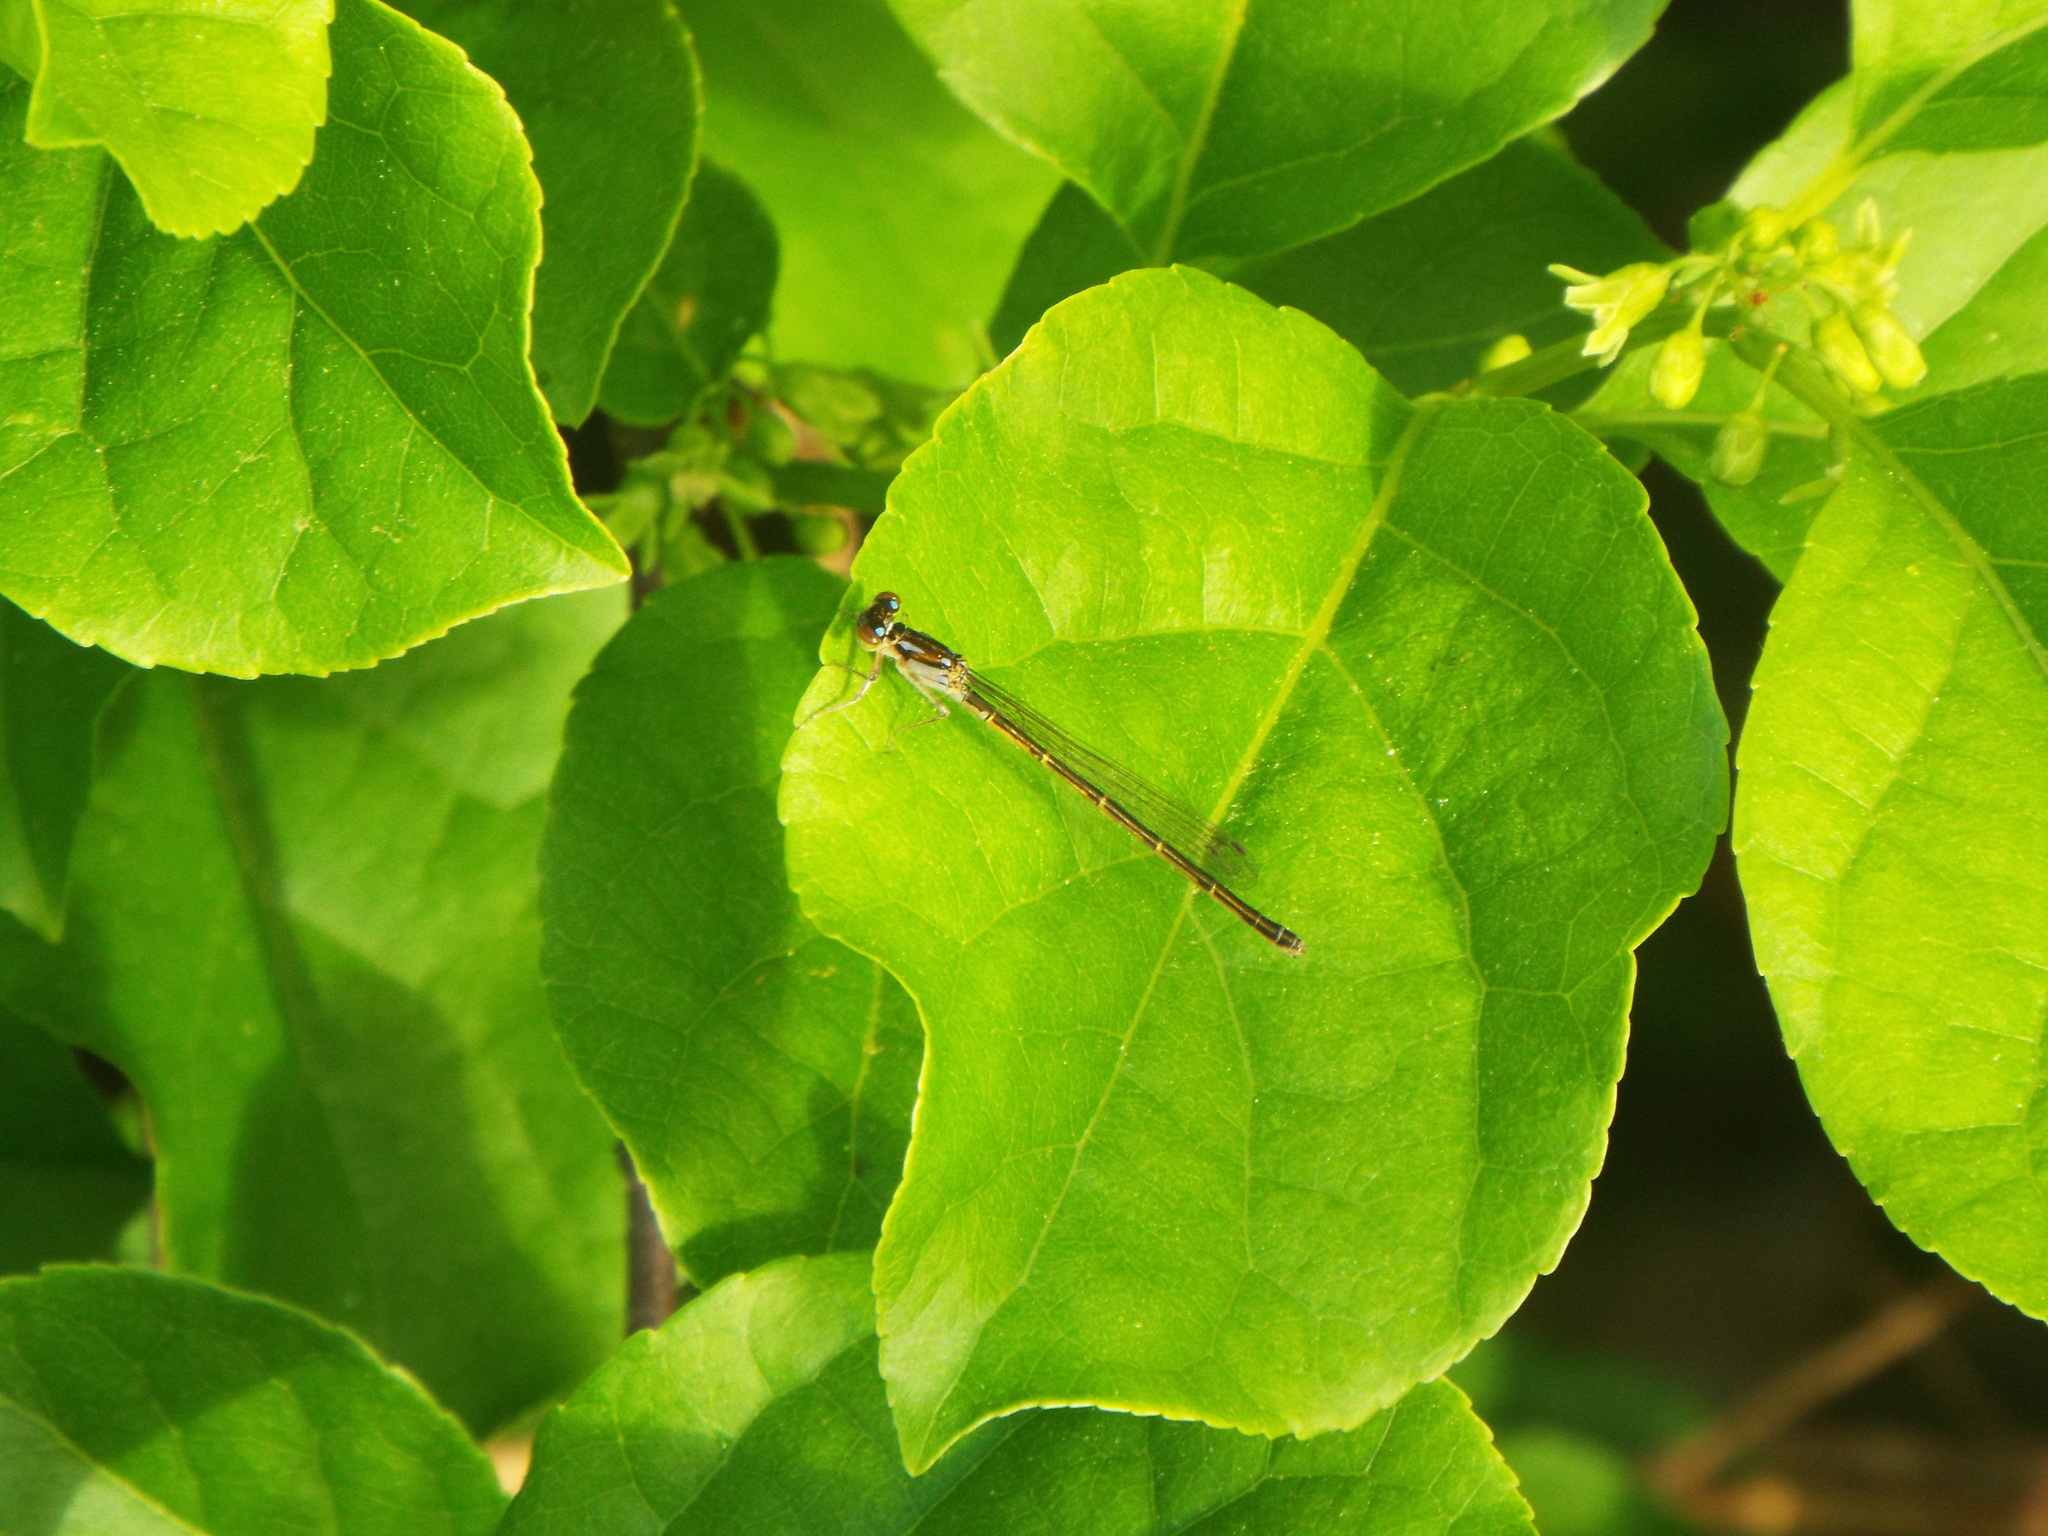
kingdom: Animalia
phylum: Arthropoda
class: Insecta
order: Odonata
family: Coenagrionidae
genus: Ischnura
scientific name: Ischnura posita
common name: Fragile forktail
